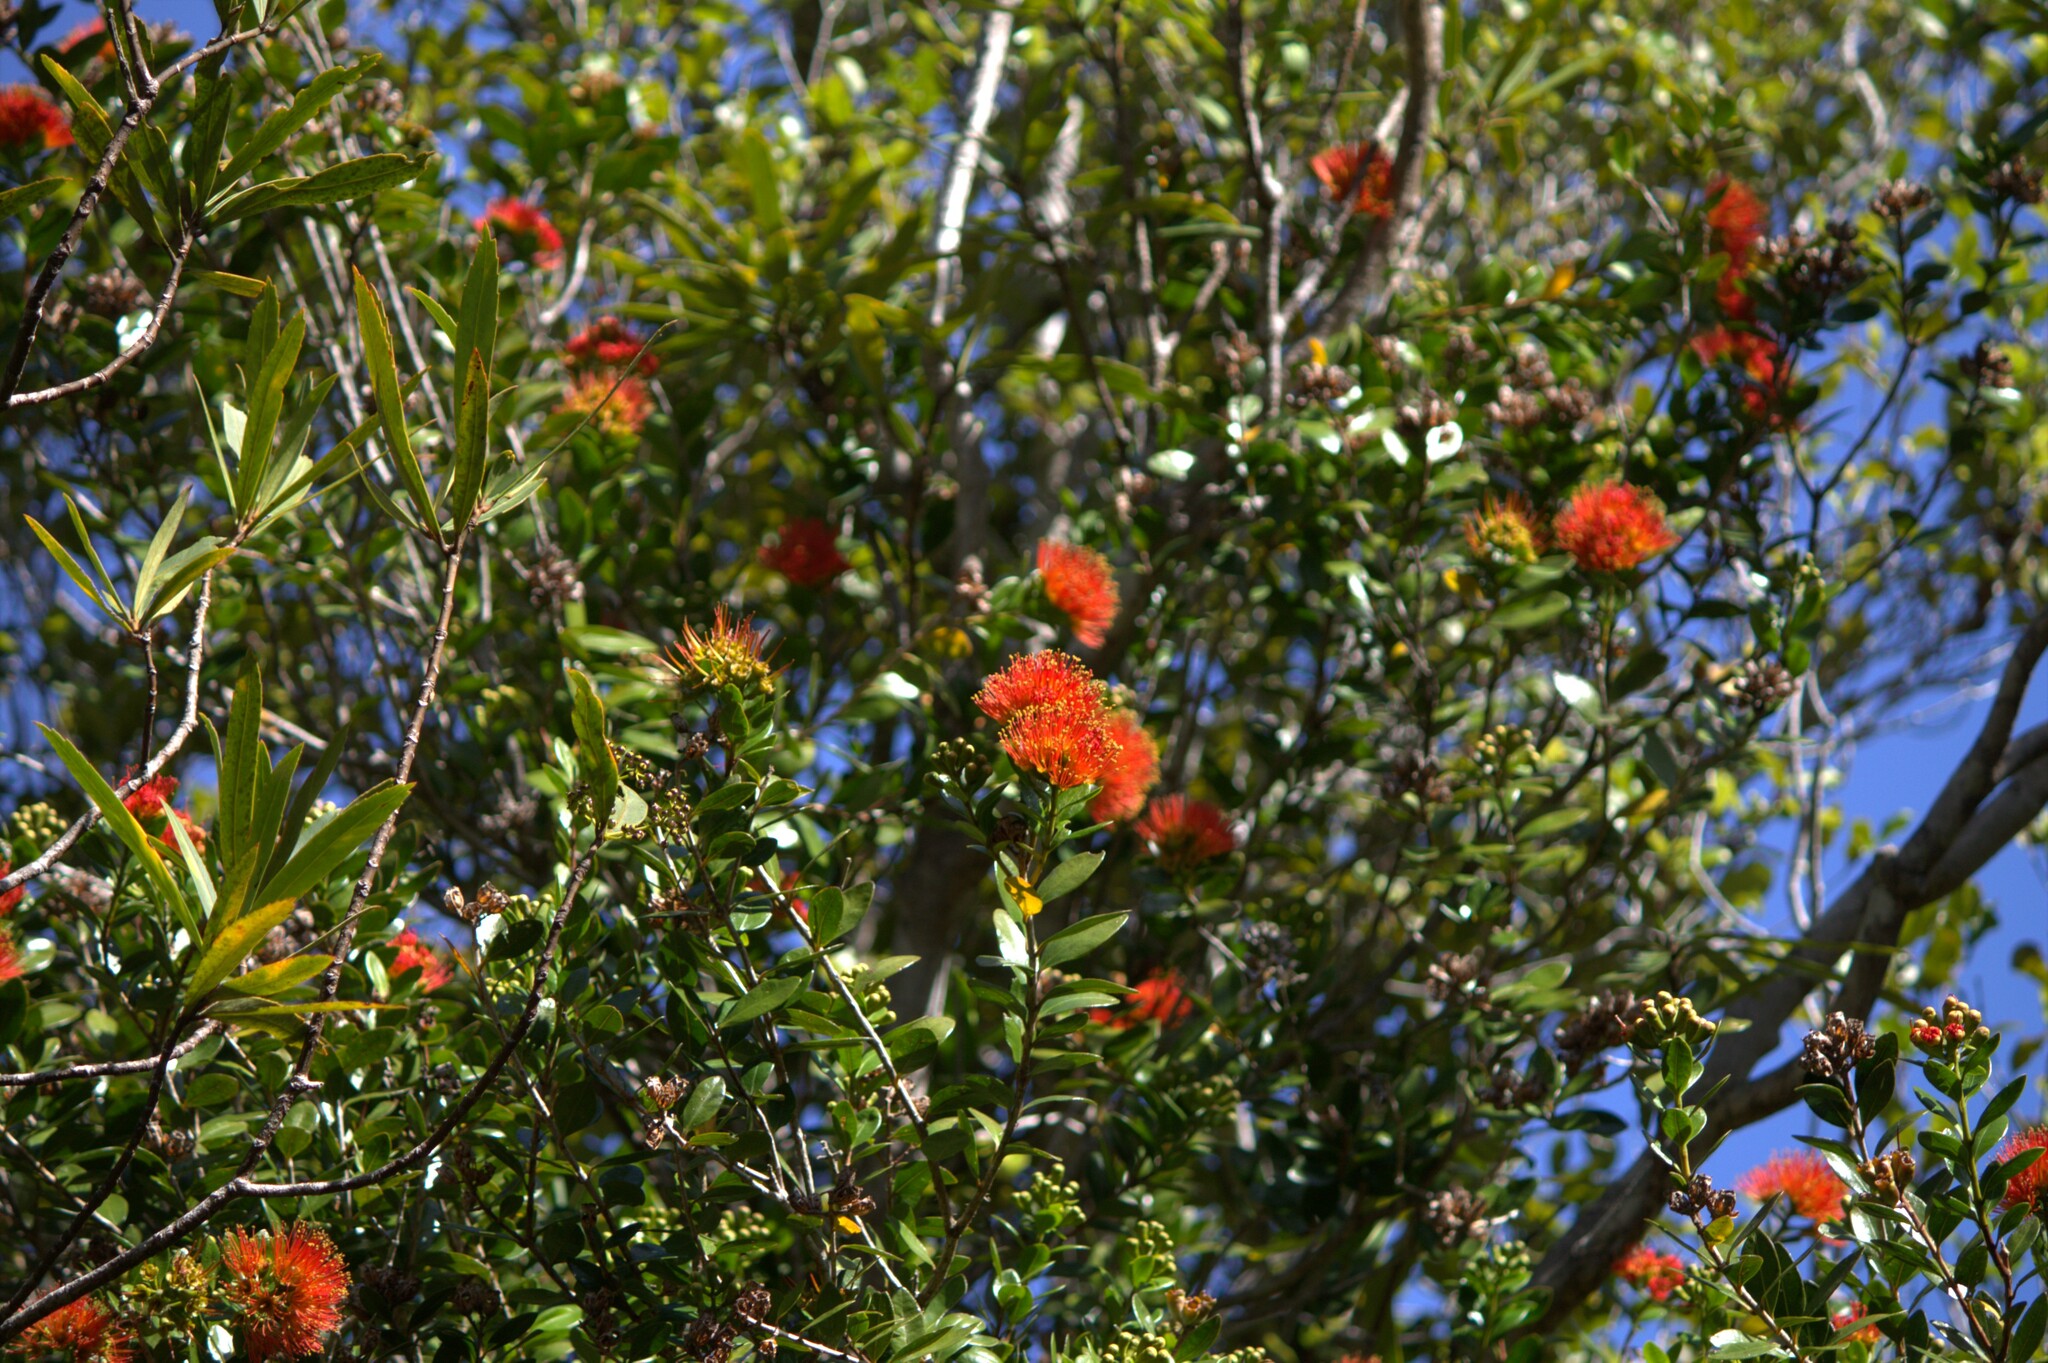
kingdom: Plantae
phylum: Tracheophyta
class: Magnoliopsida
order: Myrtales
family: Myrtaceae
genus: Metrosideros
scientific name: Metrosideros fulgens
